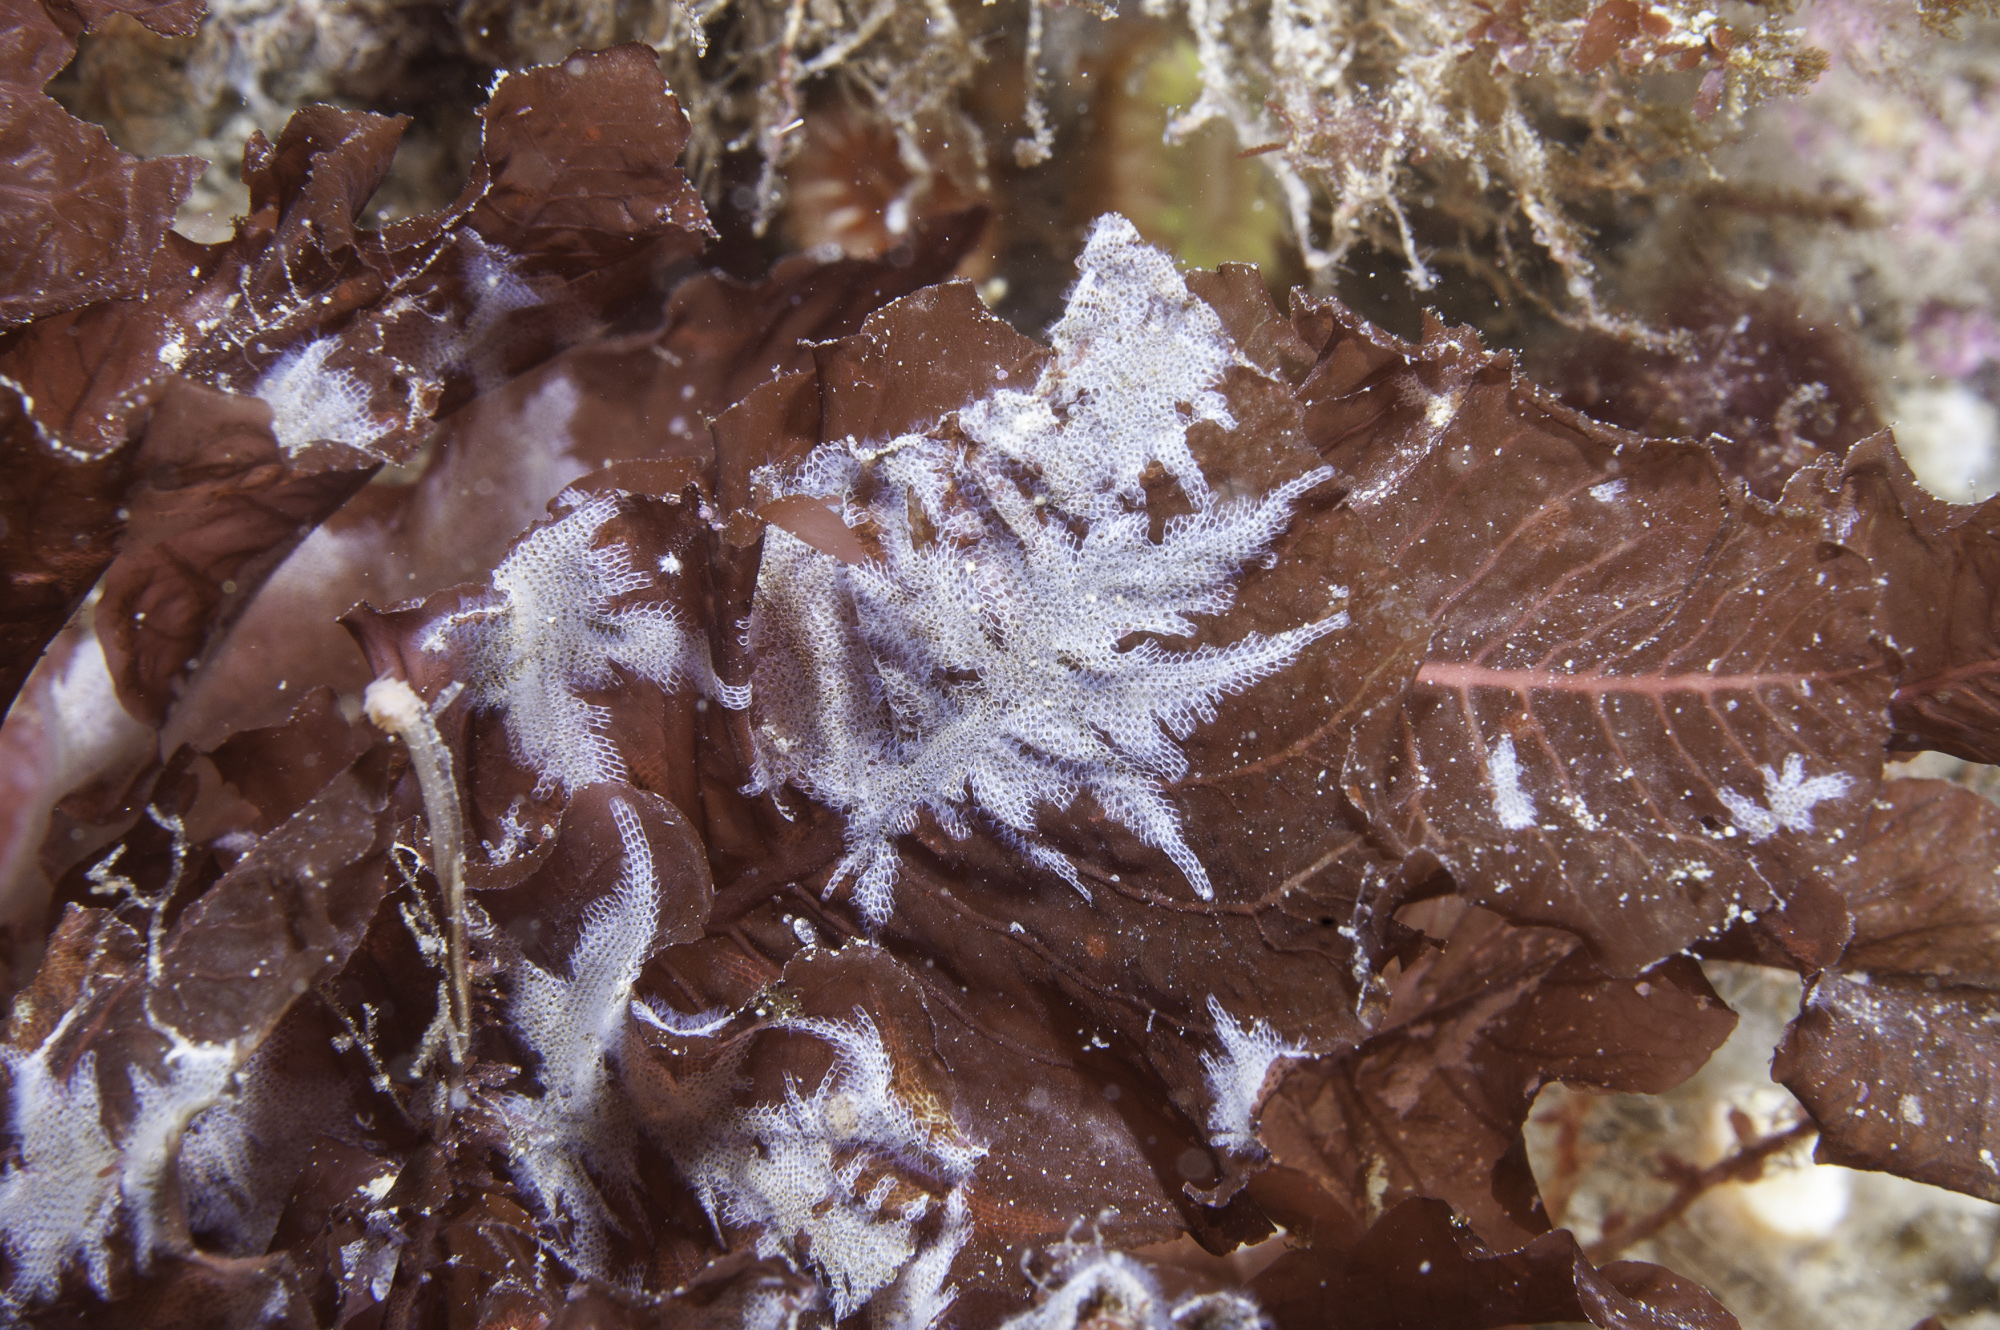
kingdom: Plantae
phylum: Rhodophyta
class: Florideophyceae
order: Ceramiales
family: Delesseriaceae
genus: Delesseria
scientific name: Delesseria sanguinea
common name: Sea beech
